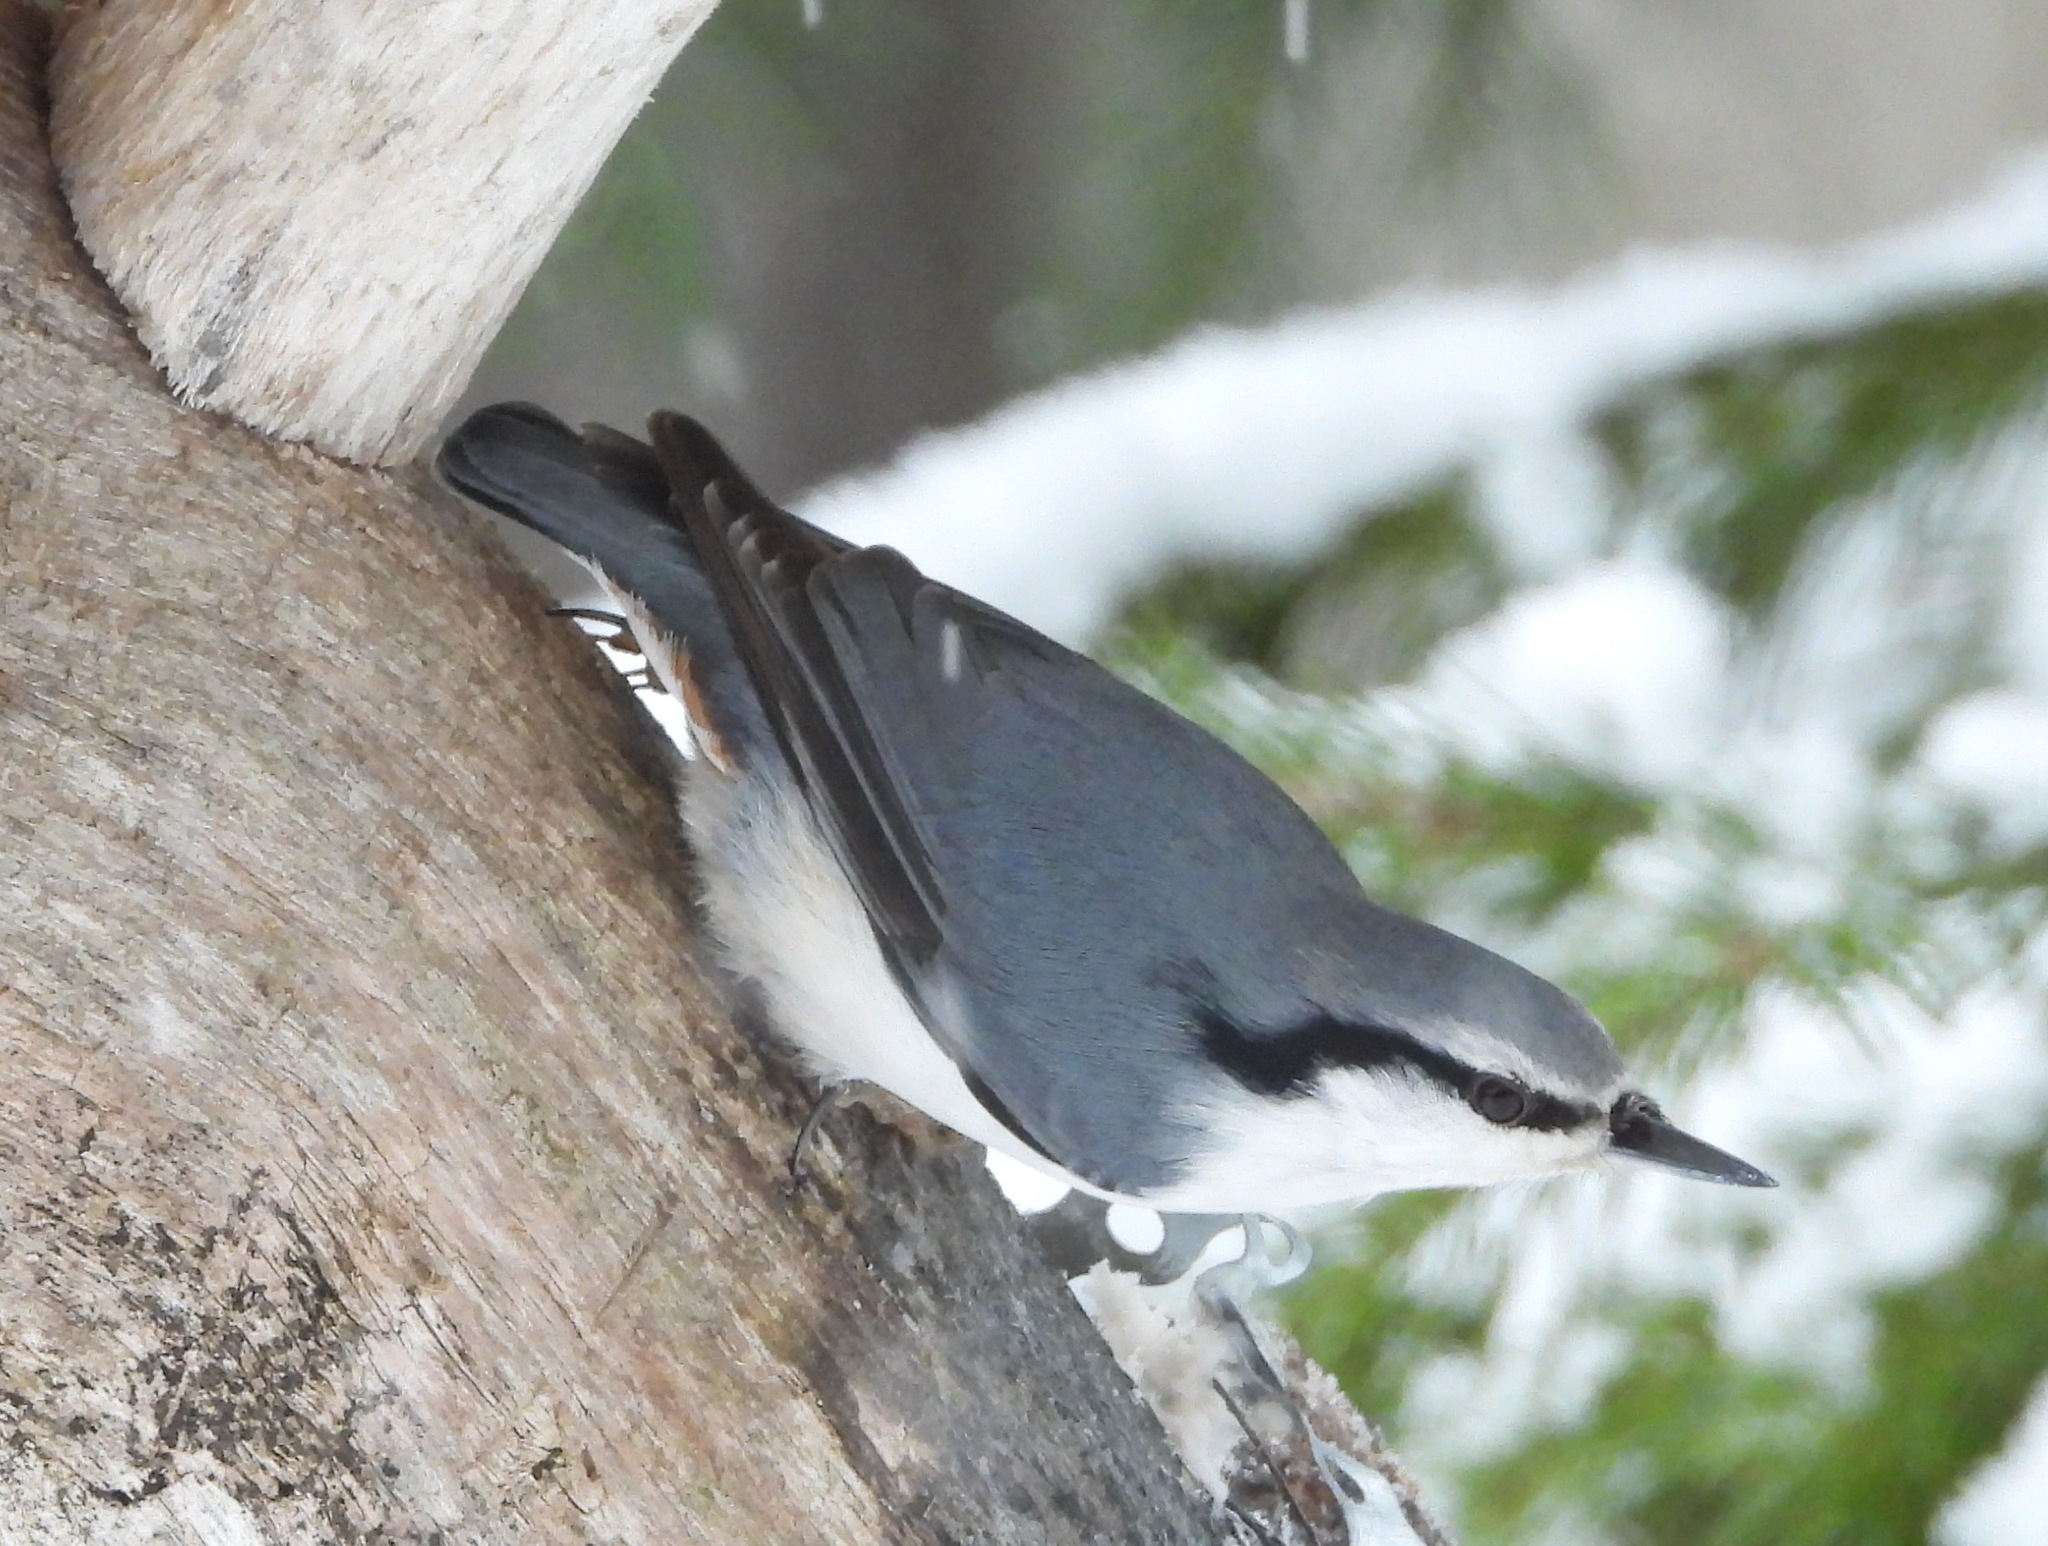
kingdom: Animalia
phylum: Chordata
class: Aves
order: Passeriformes
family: Sittidae
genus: Sitta
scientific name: Sitta europaea
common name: Eurasian nuthatch
